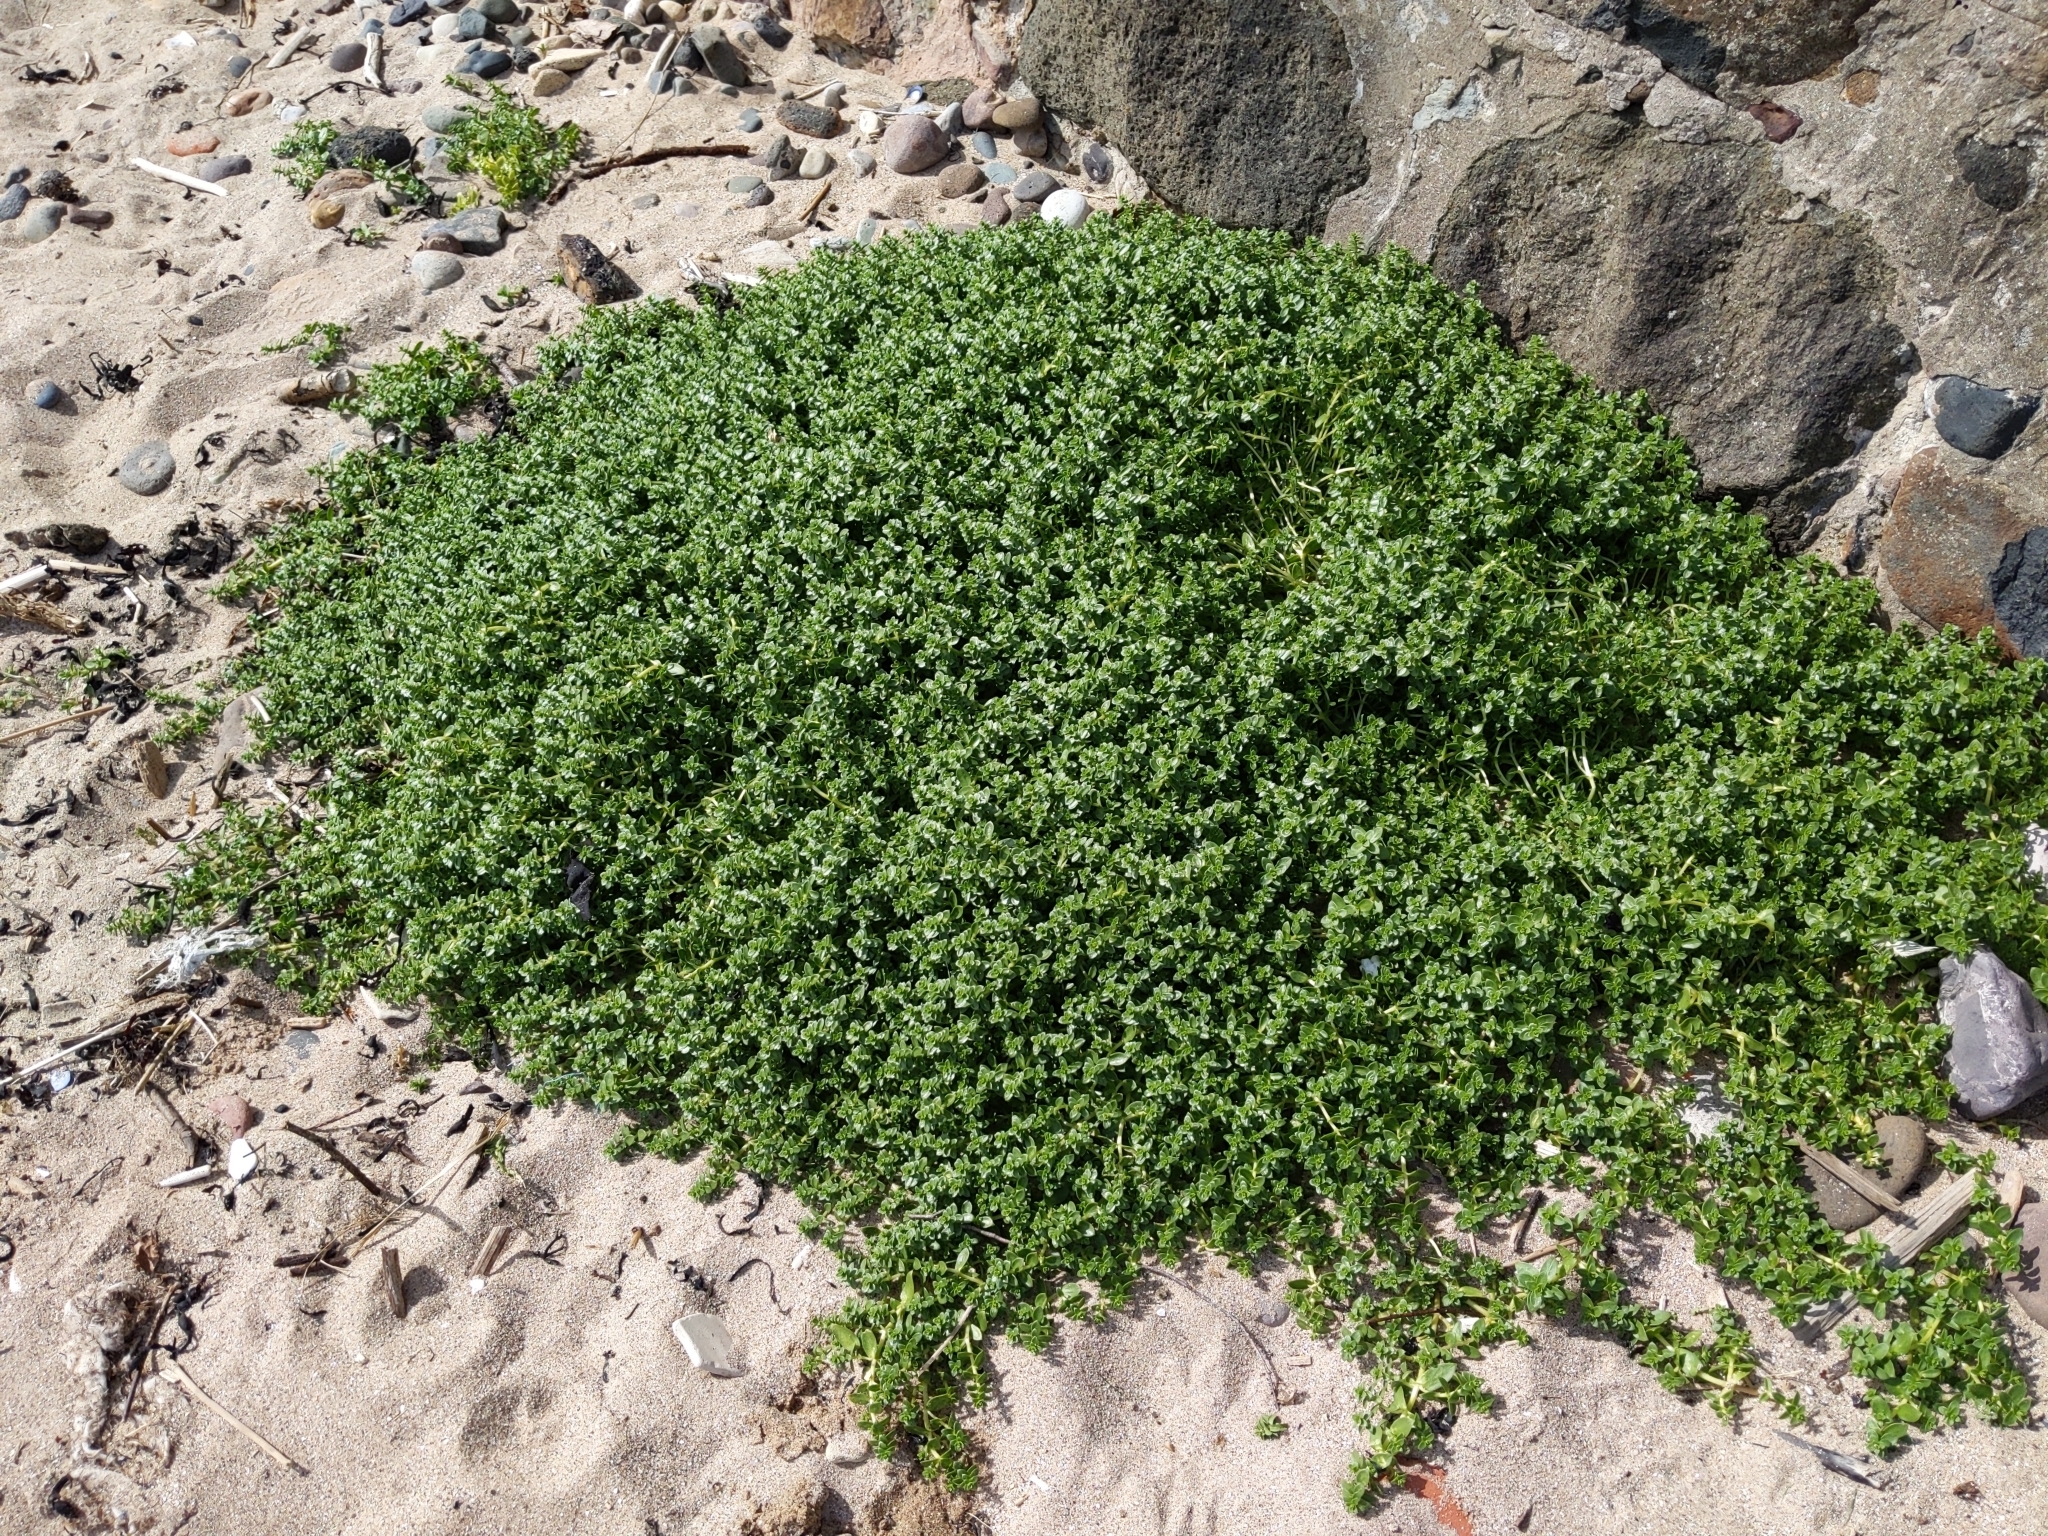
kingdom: Plantae
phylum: Tracheophyta
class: Magnoliopsida
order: Caryophyllales
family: Caryophyllaceae
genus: Honckenya
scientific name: Honckenya peploides
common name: Sea sandwort
